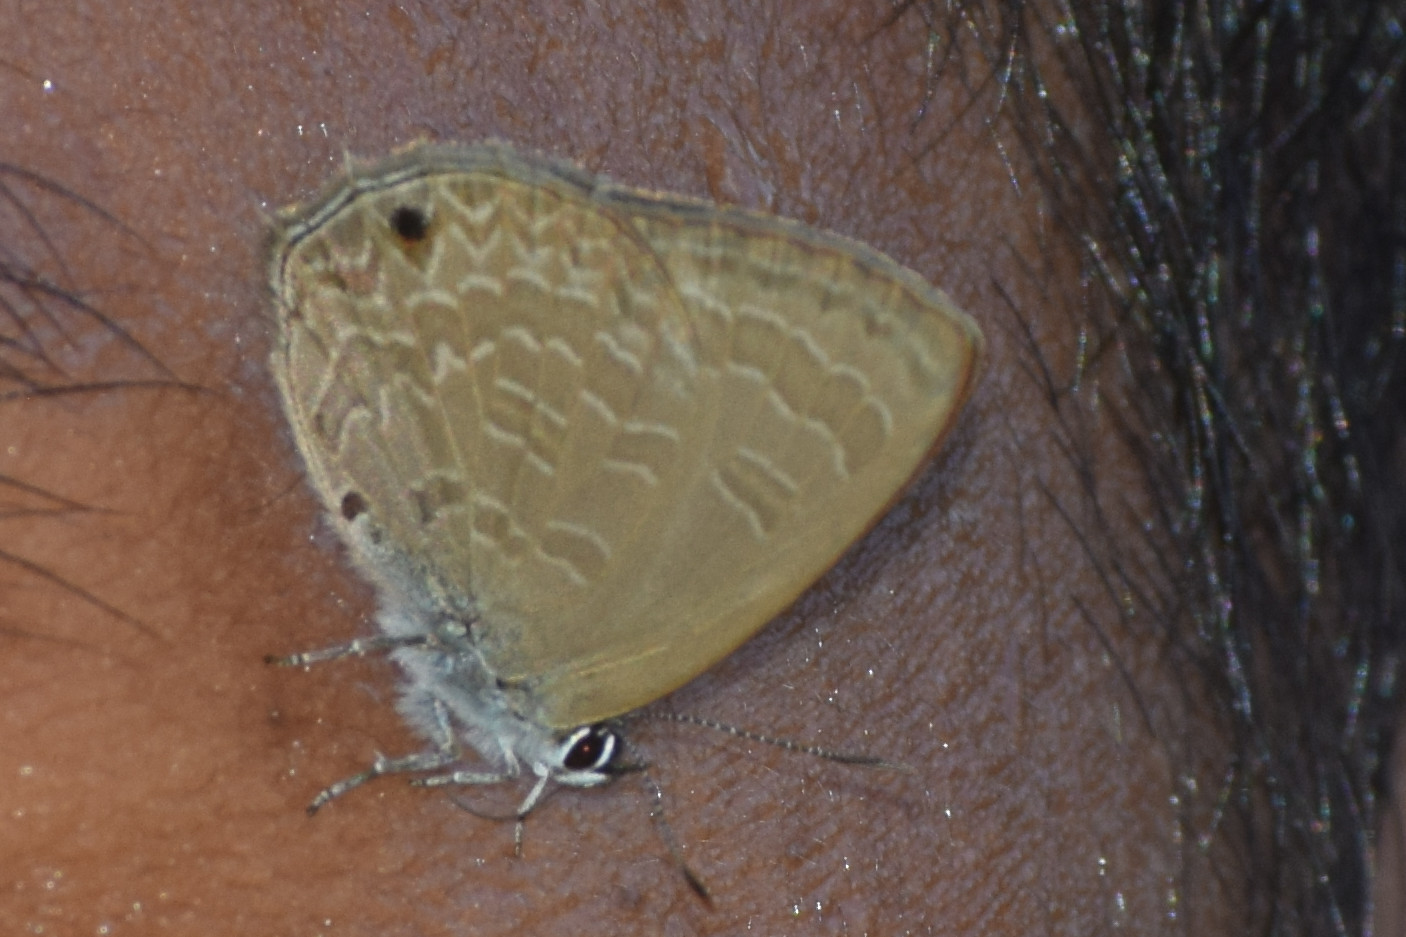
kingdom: Animalia
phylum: Arthropoda
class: Insecta
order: Lepidoptera
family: Lycaenidae
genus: Anthene
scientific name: Anthene emolus
